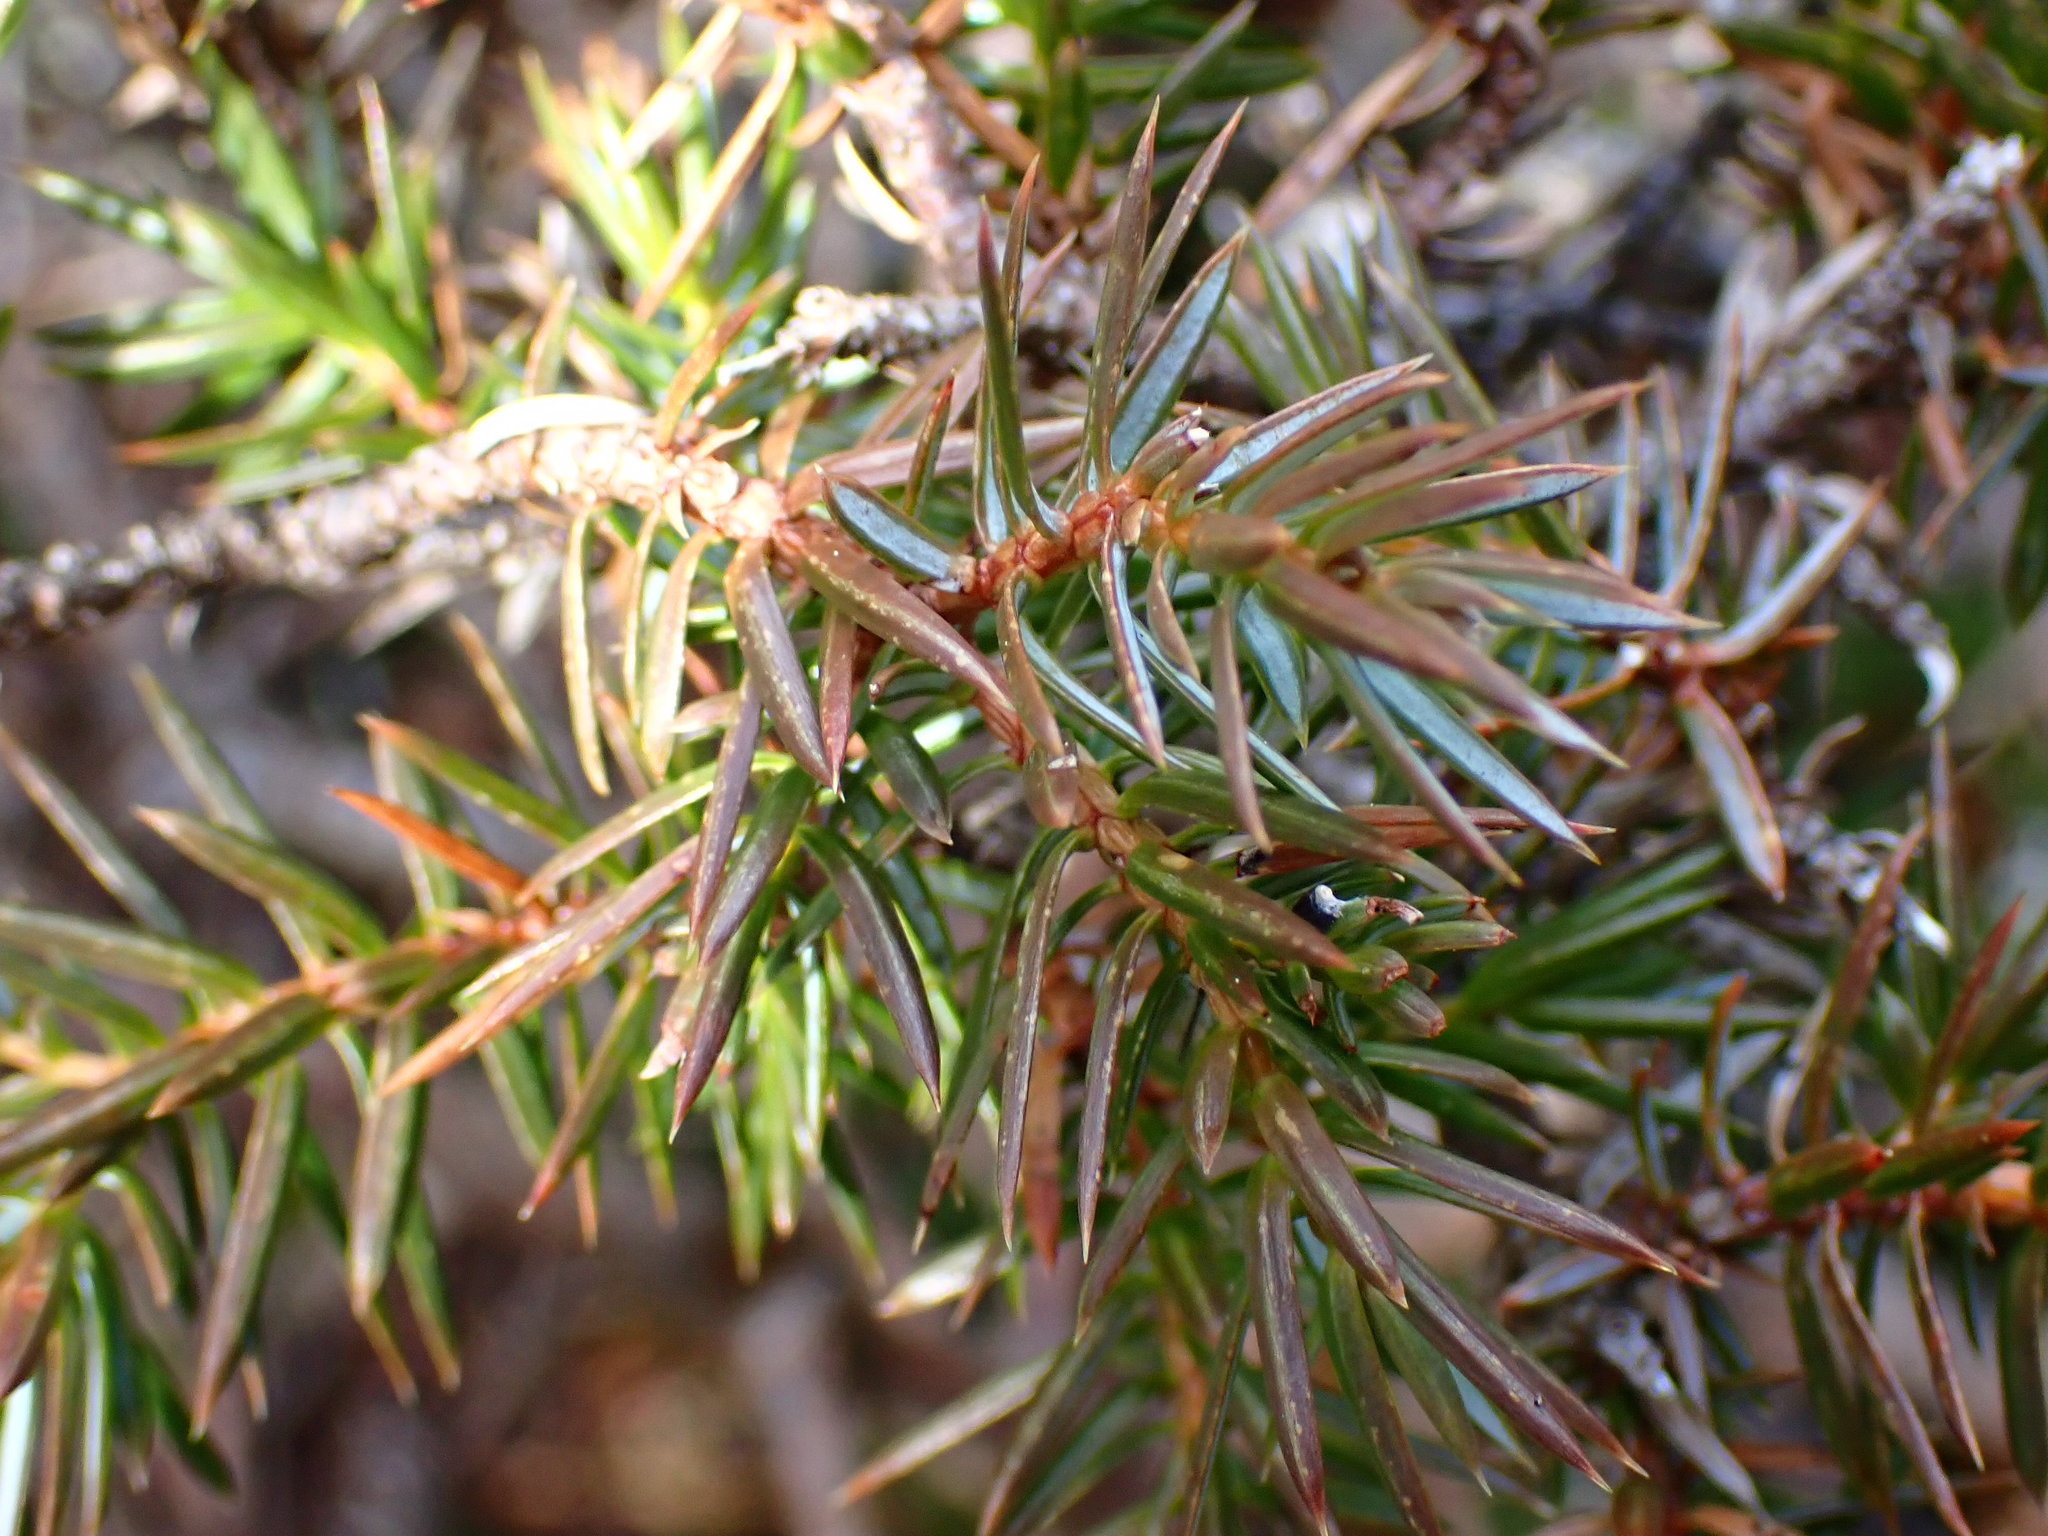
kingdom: Plantae
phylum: Tracheophyta
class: Pinopsida
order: Pinales
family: Cupressaceae
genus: Juniperus
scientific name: Juniperus communis
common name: Common juniper
